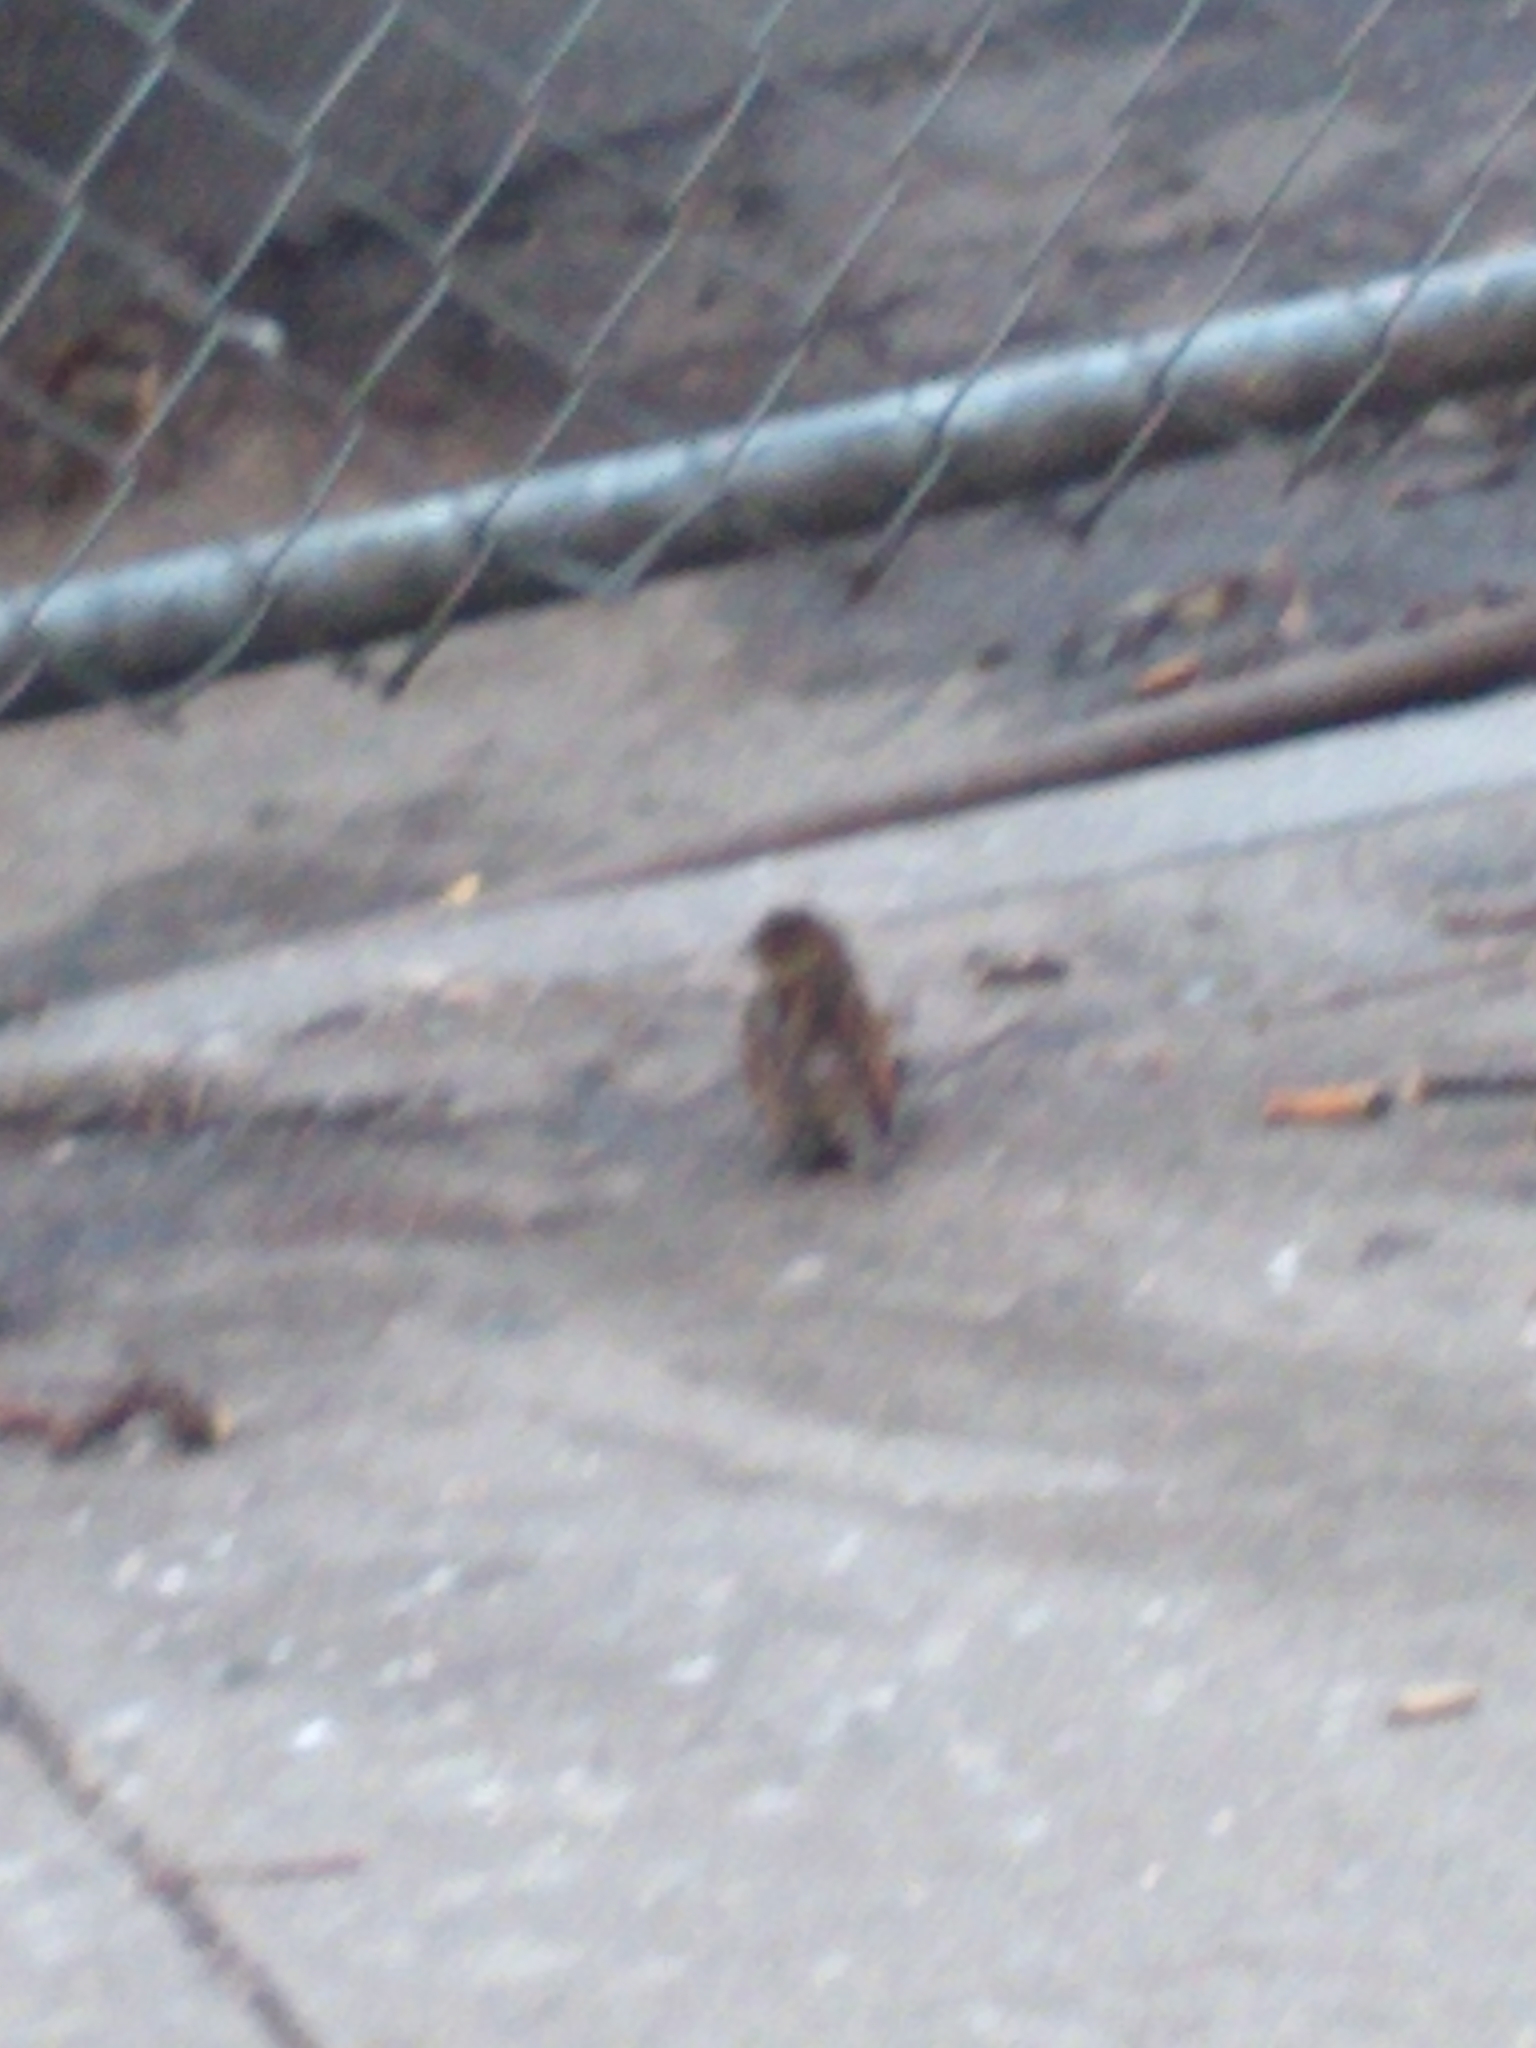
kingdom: Animalia
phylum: Chordata
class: Aves
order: Passeriformes
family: Passeridae
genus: Passer
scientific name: Passer domesticus
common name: House sparrow
